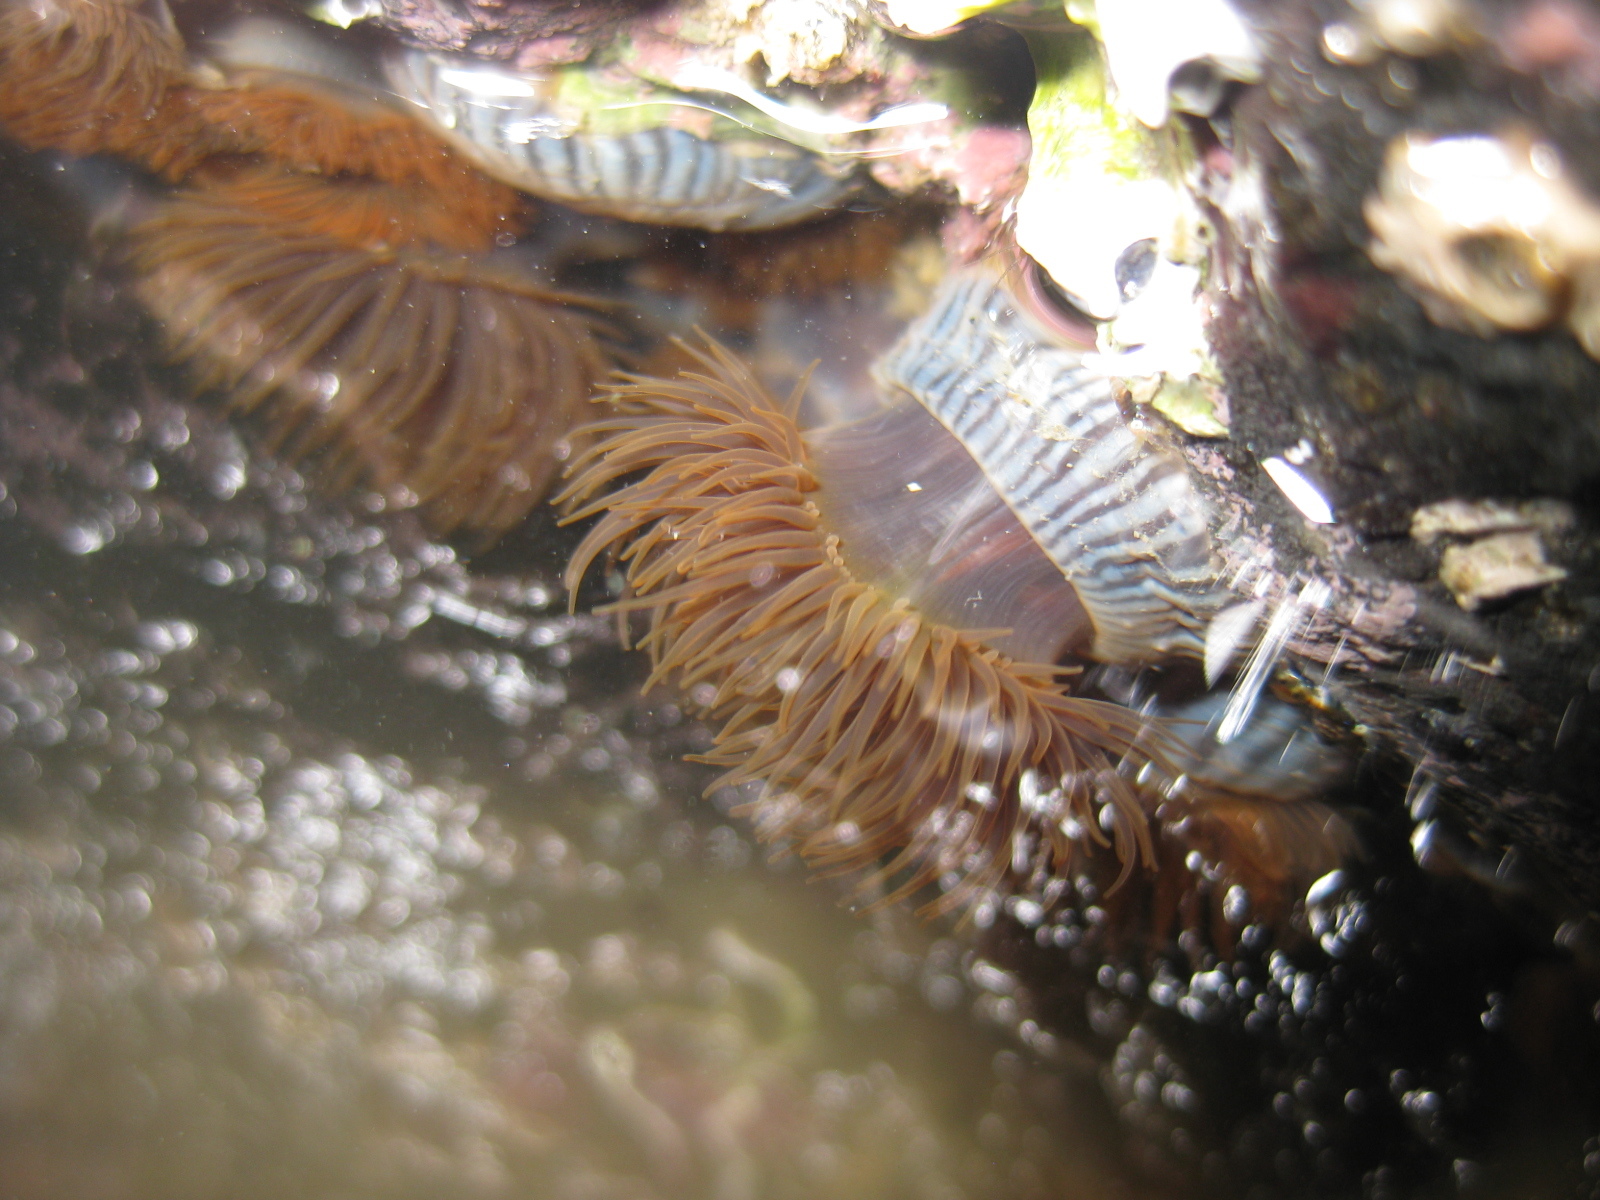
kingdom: Animalia
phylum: Cnidaria
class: Anthozoa
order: Actiniaria
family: Diadumenidae
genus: Diadumene
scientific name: Diadumene neozelanica
